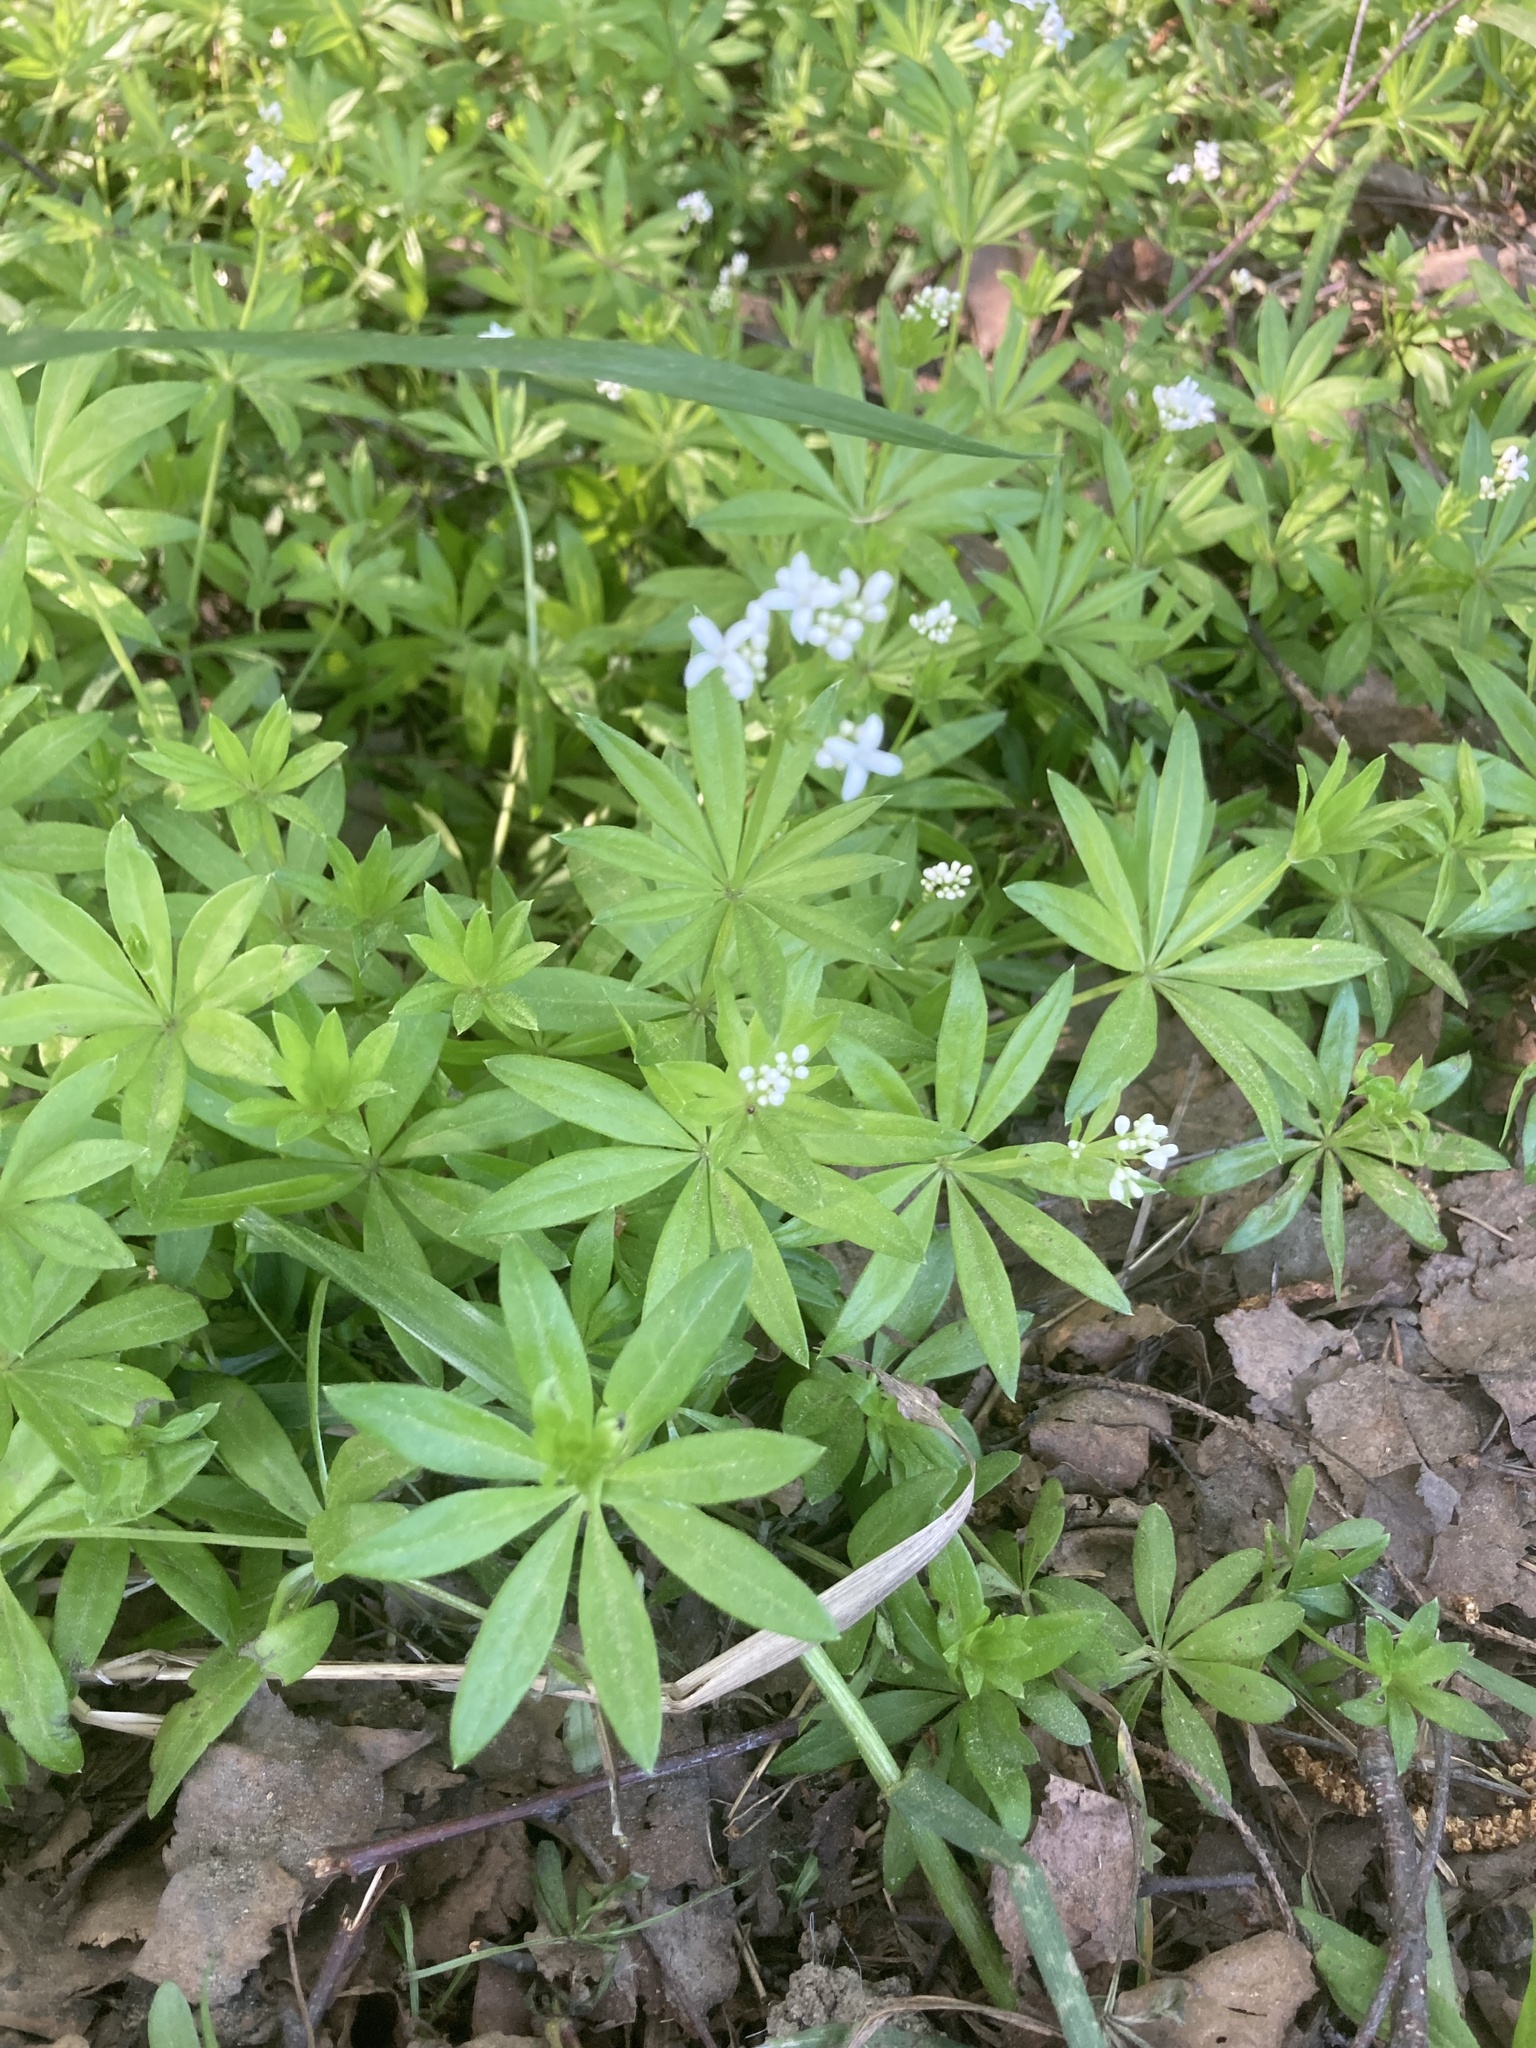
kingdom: Plantae
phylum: Tracheophyta
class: Magnoliopsida
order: Gentianales
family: Rubiaceae
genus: Galium
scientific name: Galium odoratum
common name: Sweet woodruff
